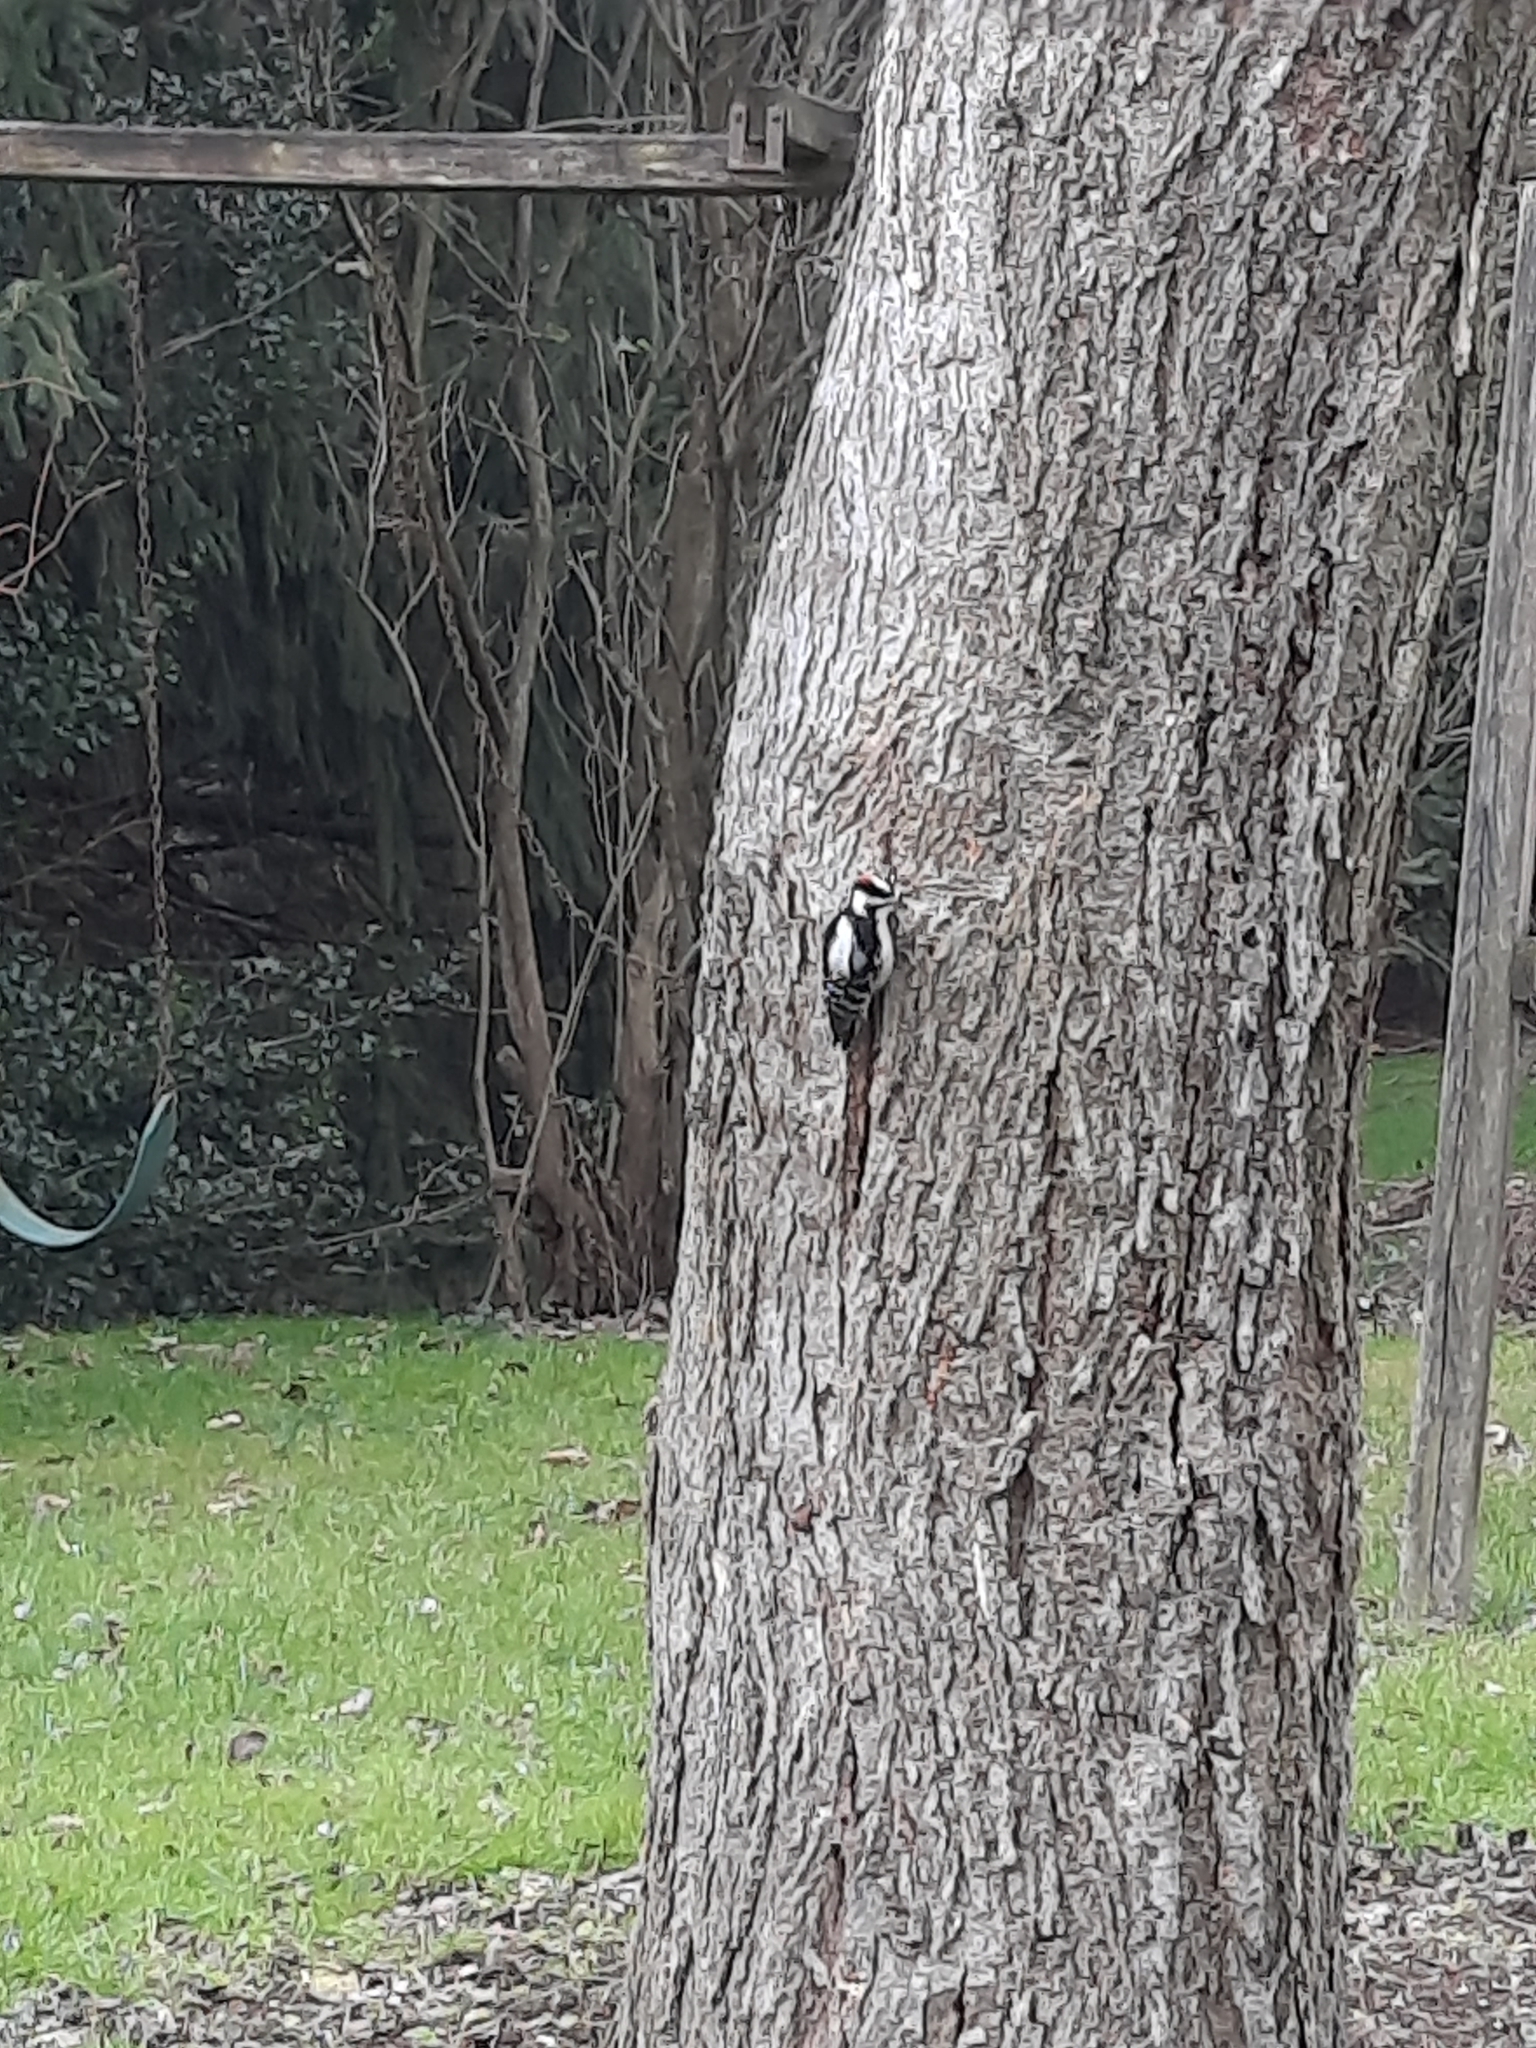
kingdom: Animalia
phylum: Chordata
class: Aves
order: Piciformes
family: Picidae
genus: Dryobates
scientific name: Dryobates pubescens
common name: Downy woodpecker
